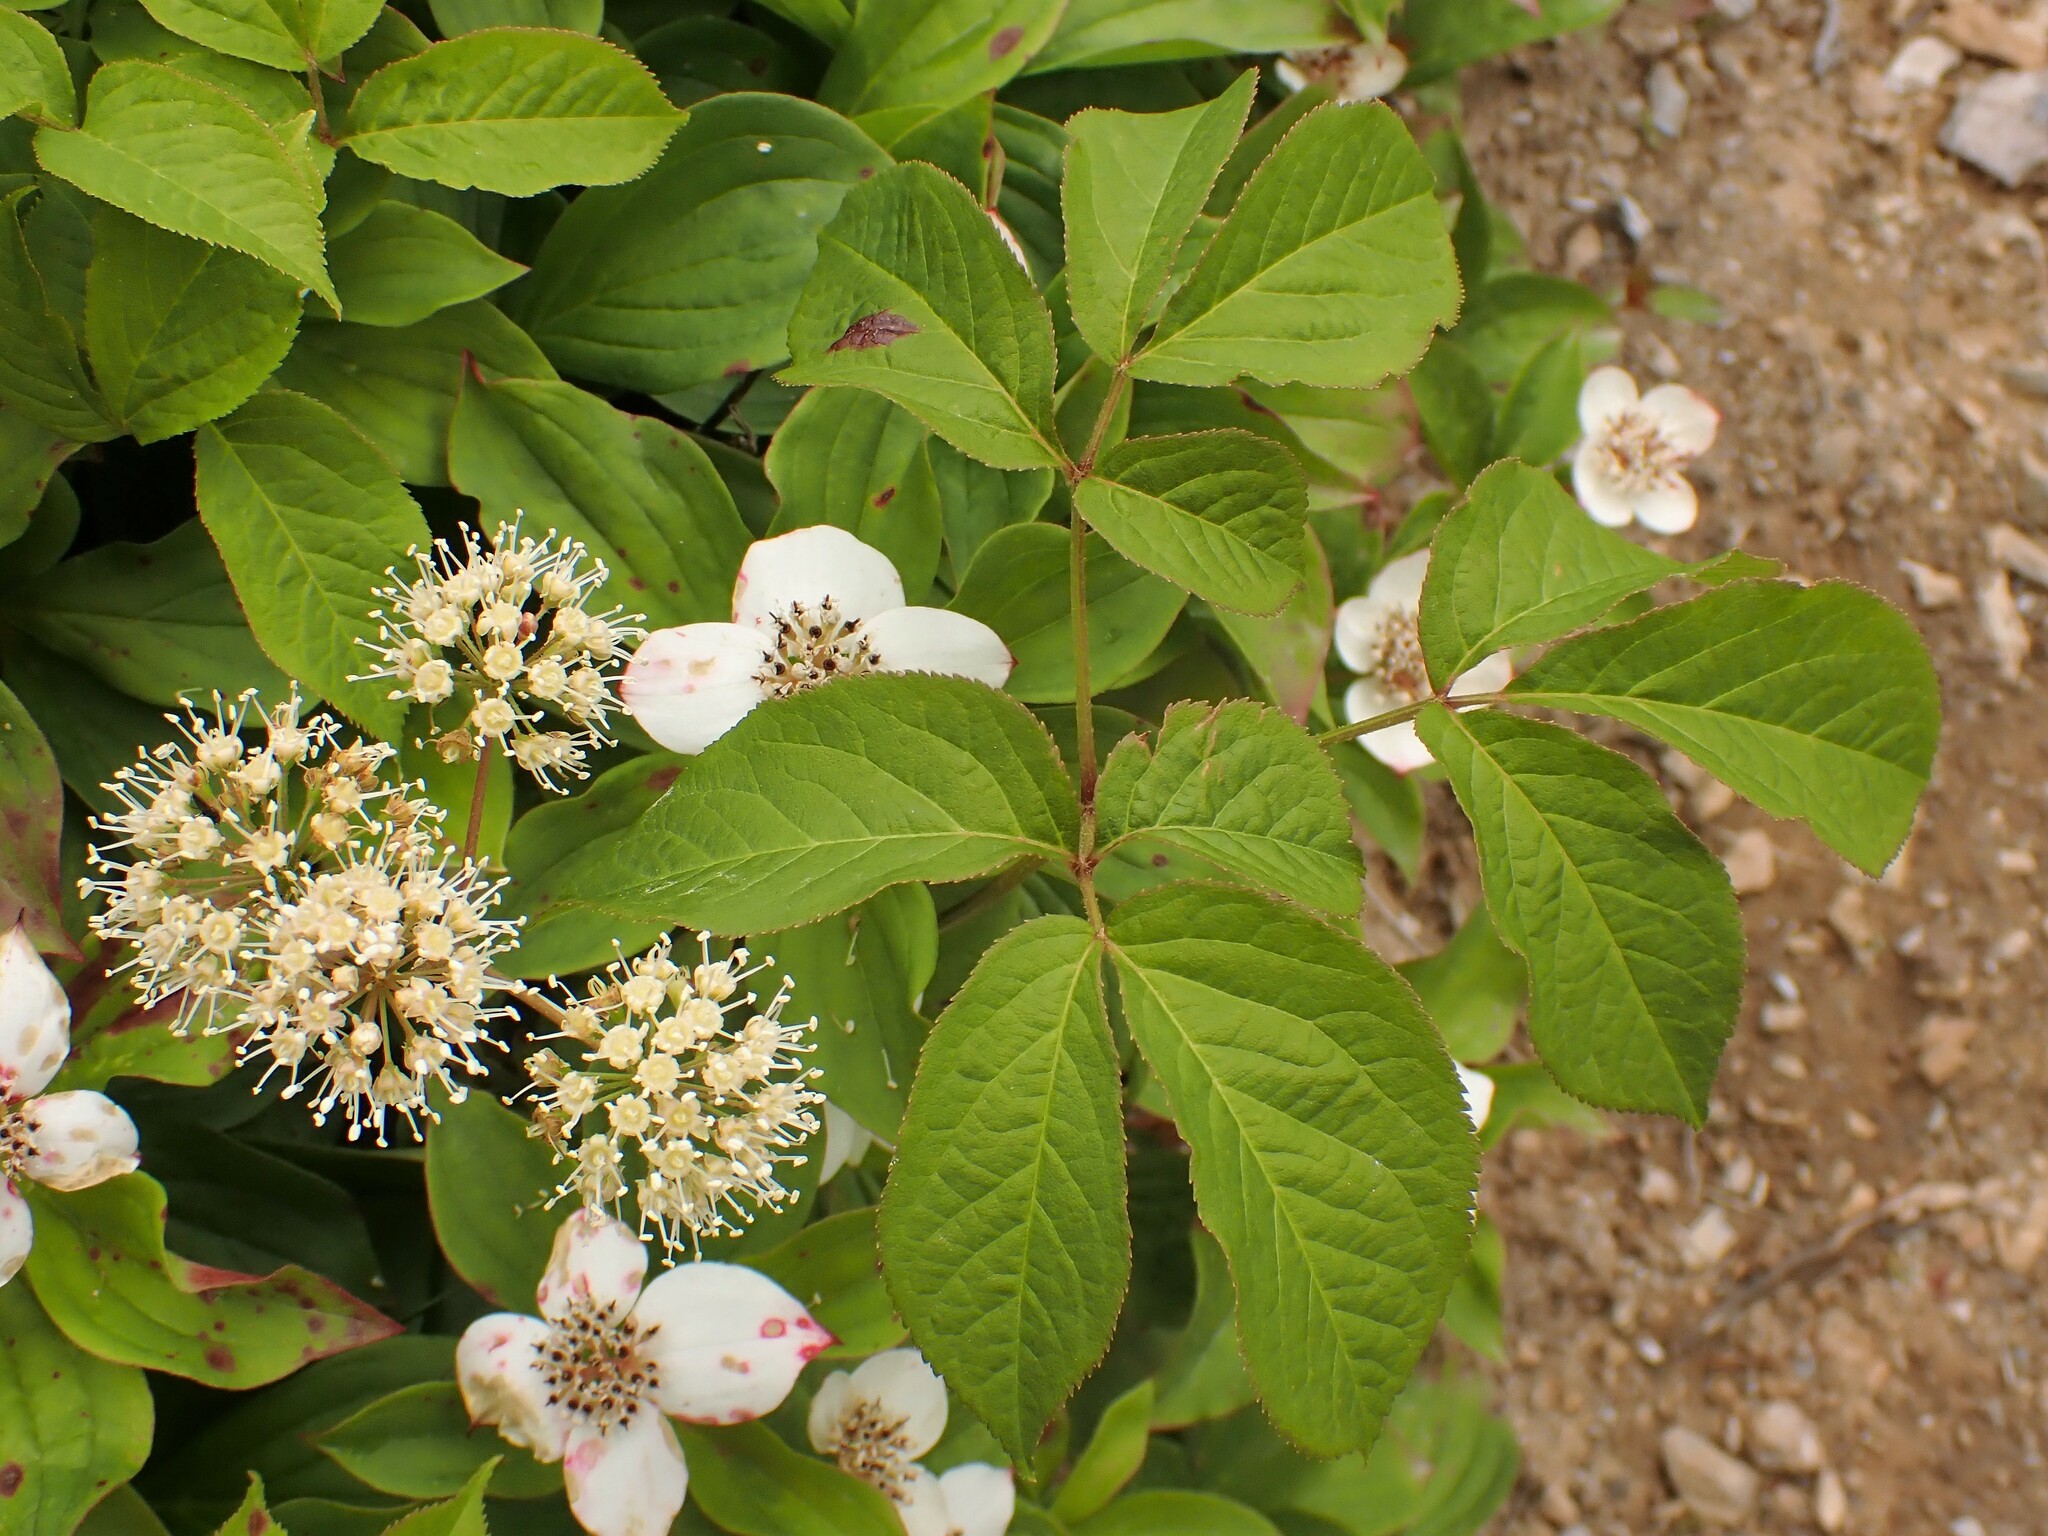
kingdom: Plantae
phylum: Tracheophyta
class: Magnoliopsida
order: Apiales
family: Araliaceae
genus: Aralia
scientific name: Aralia nudicaulis
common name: Wild sarsaparilla
